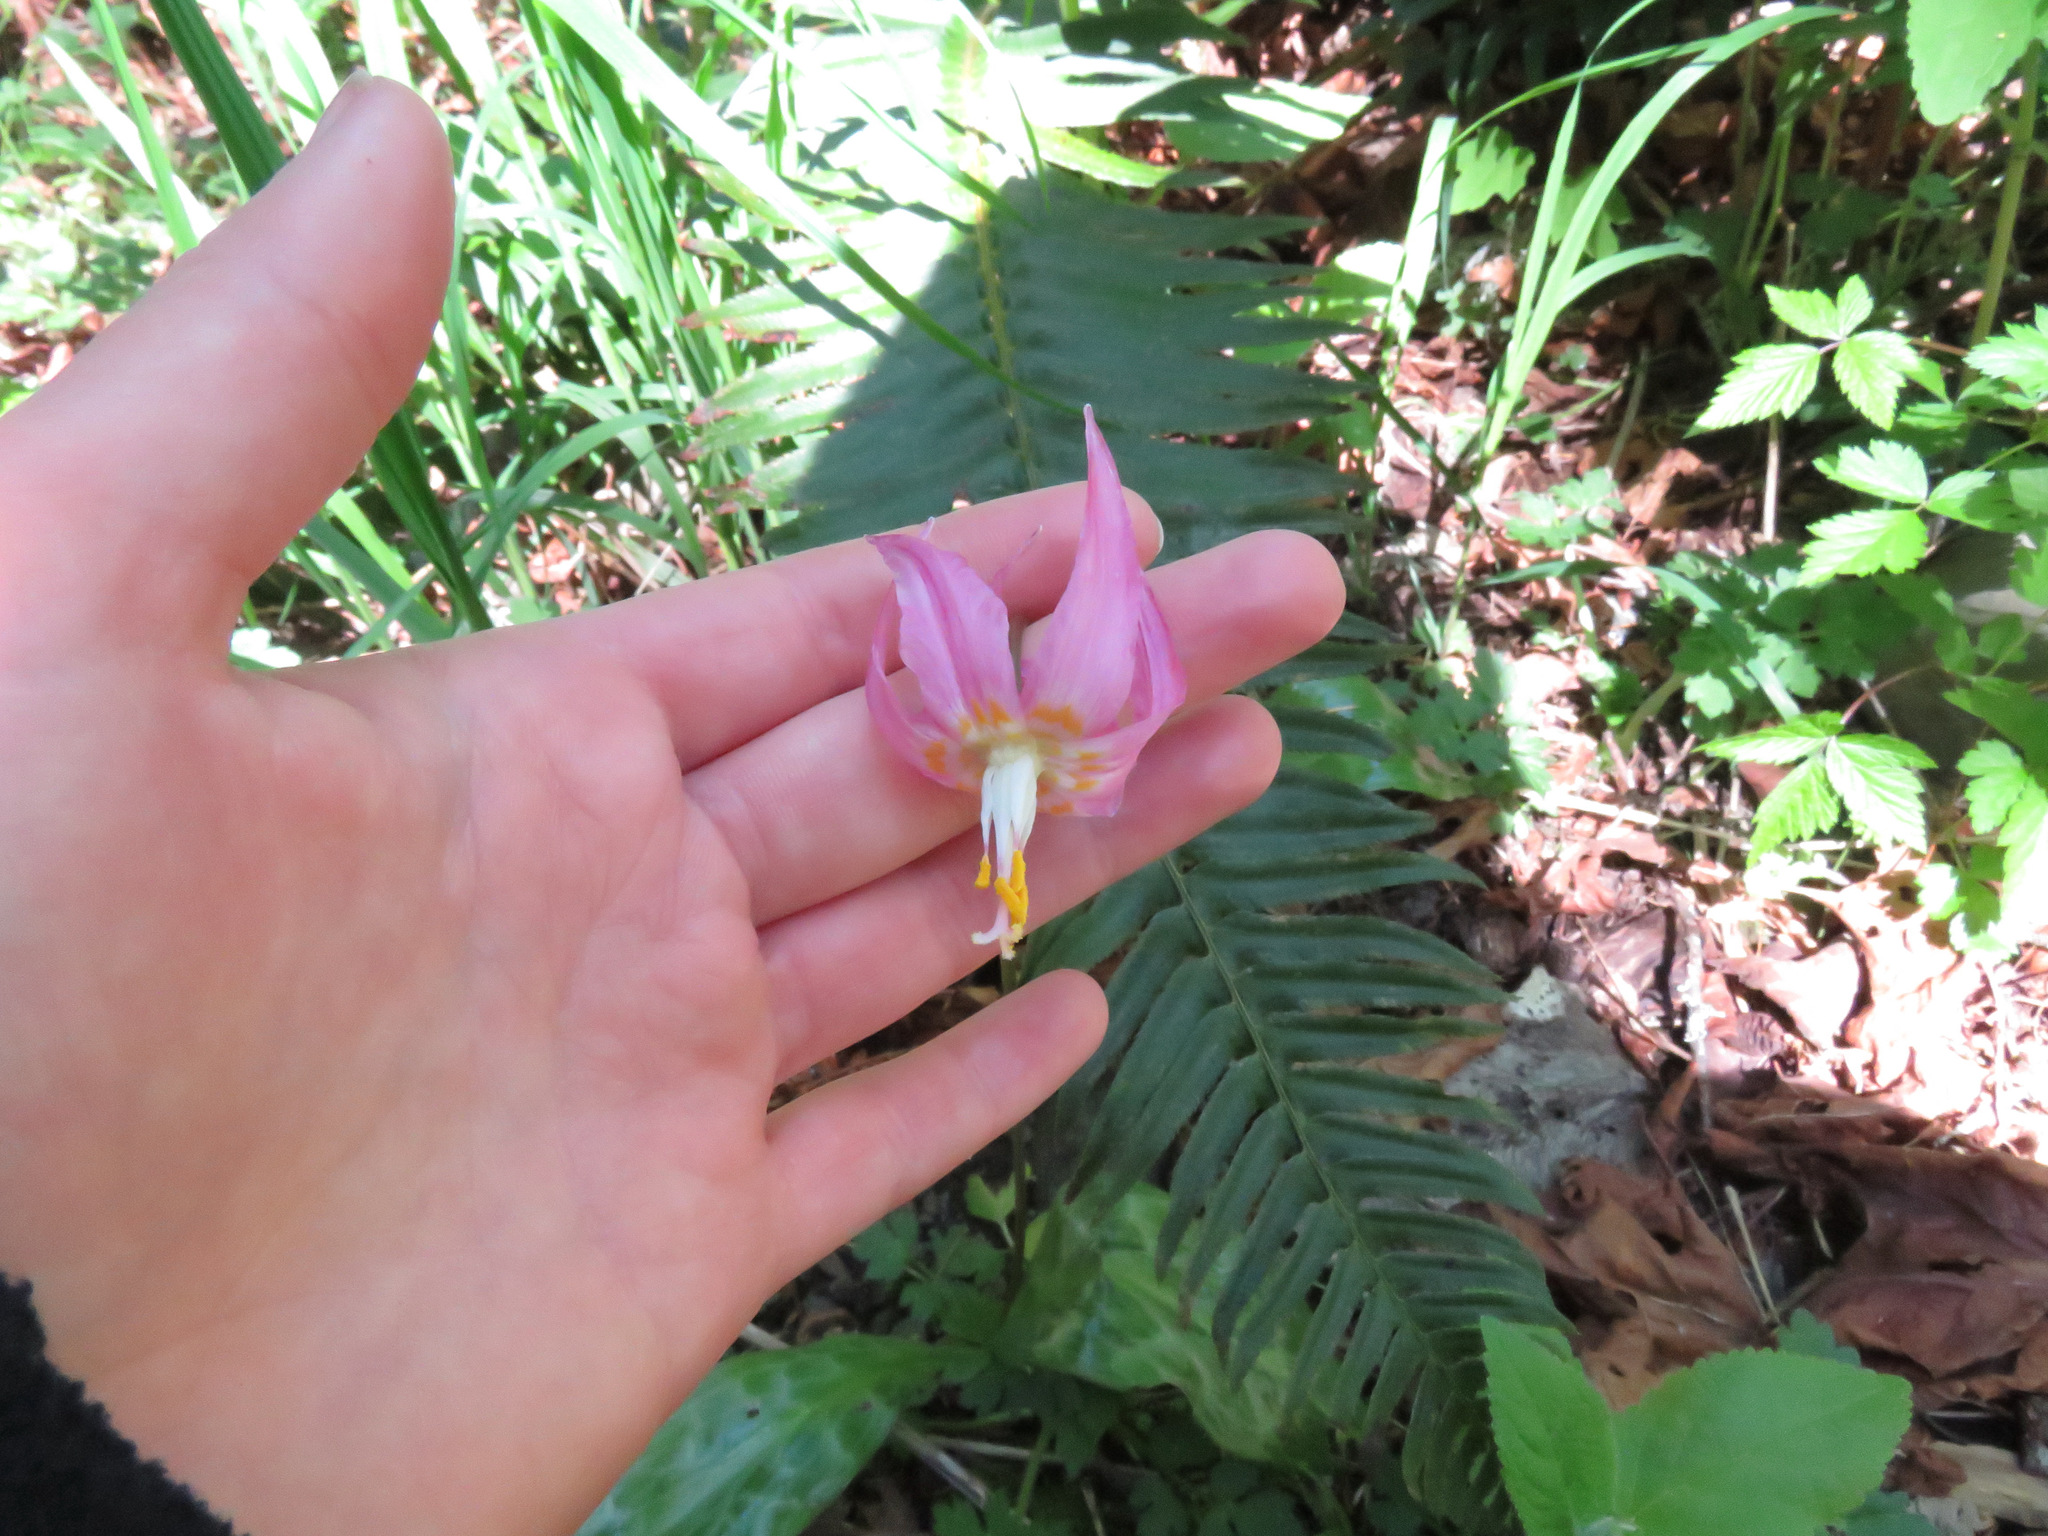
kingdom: Plantae
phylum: Tracheophyta
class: Liliopsida
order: Liliales
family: Liliaceae
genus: Erythronium
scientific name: Erythronium revolutum
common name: Pink fawn-lily
